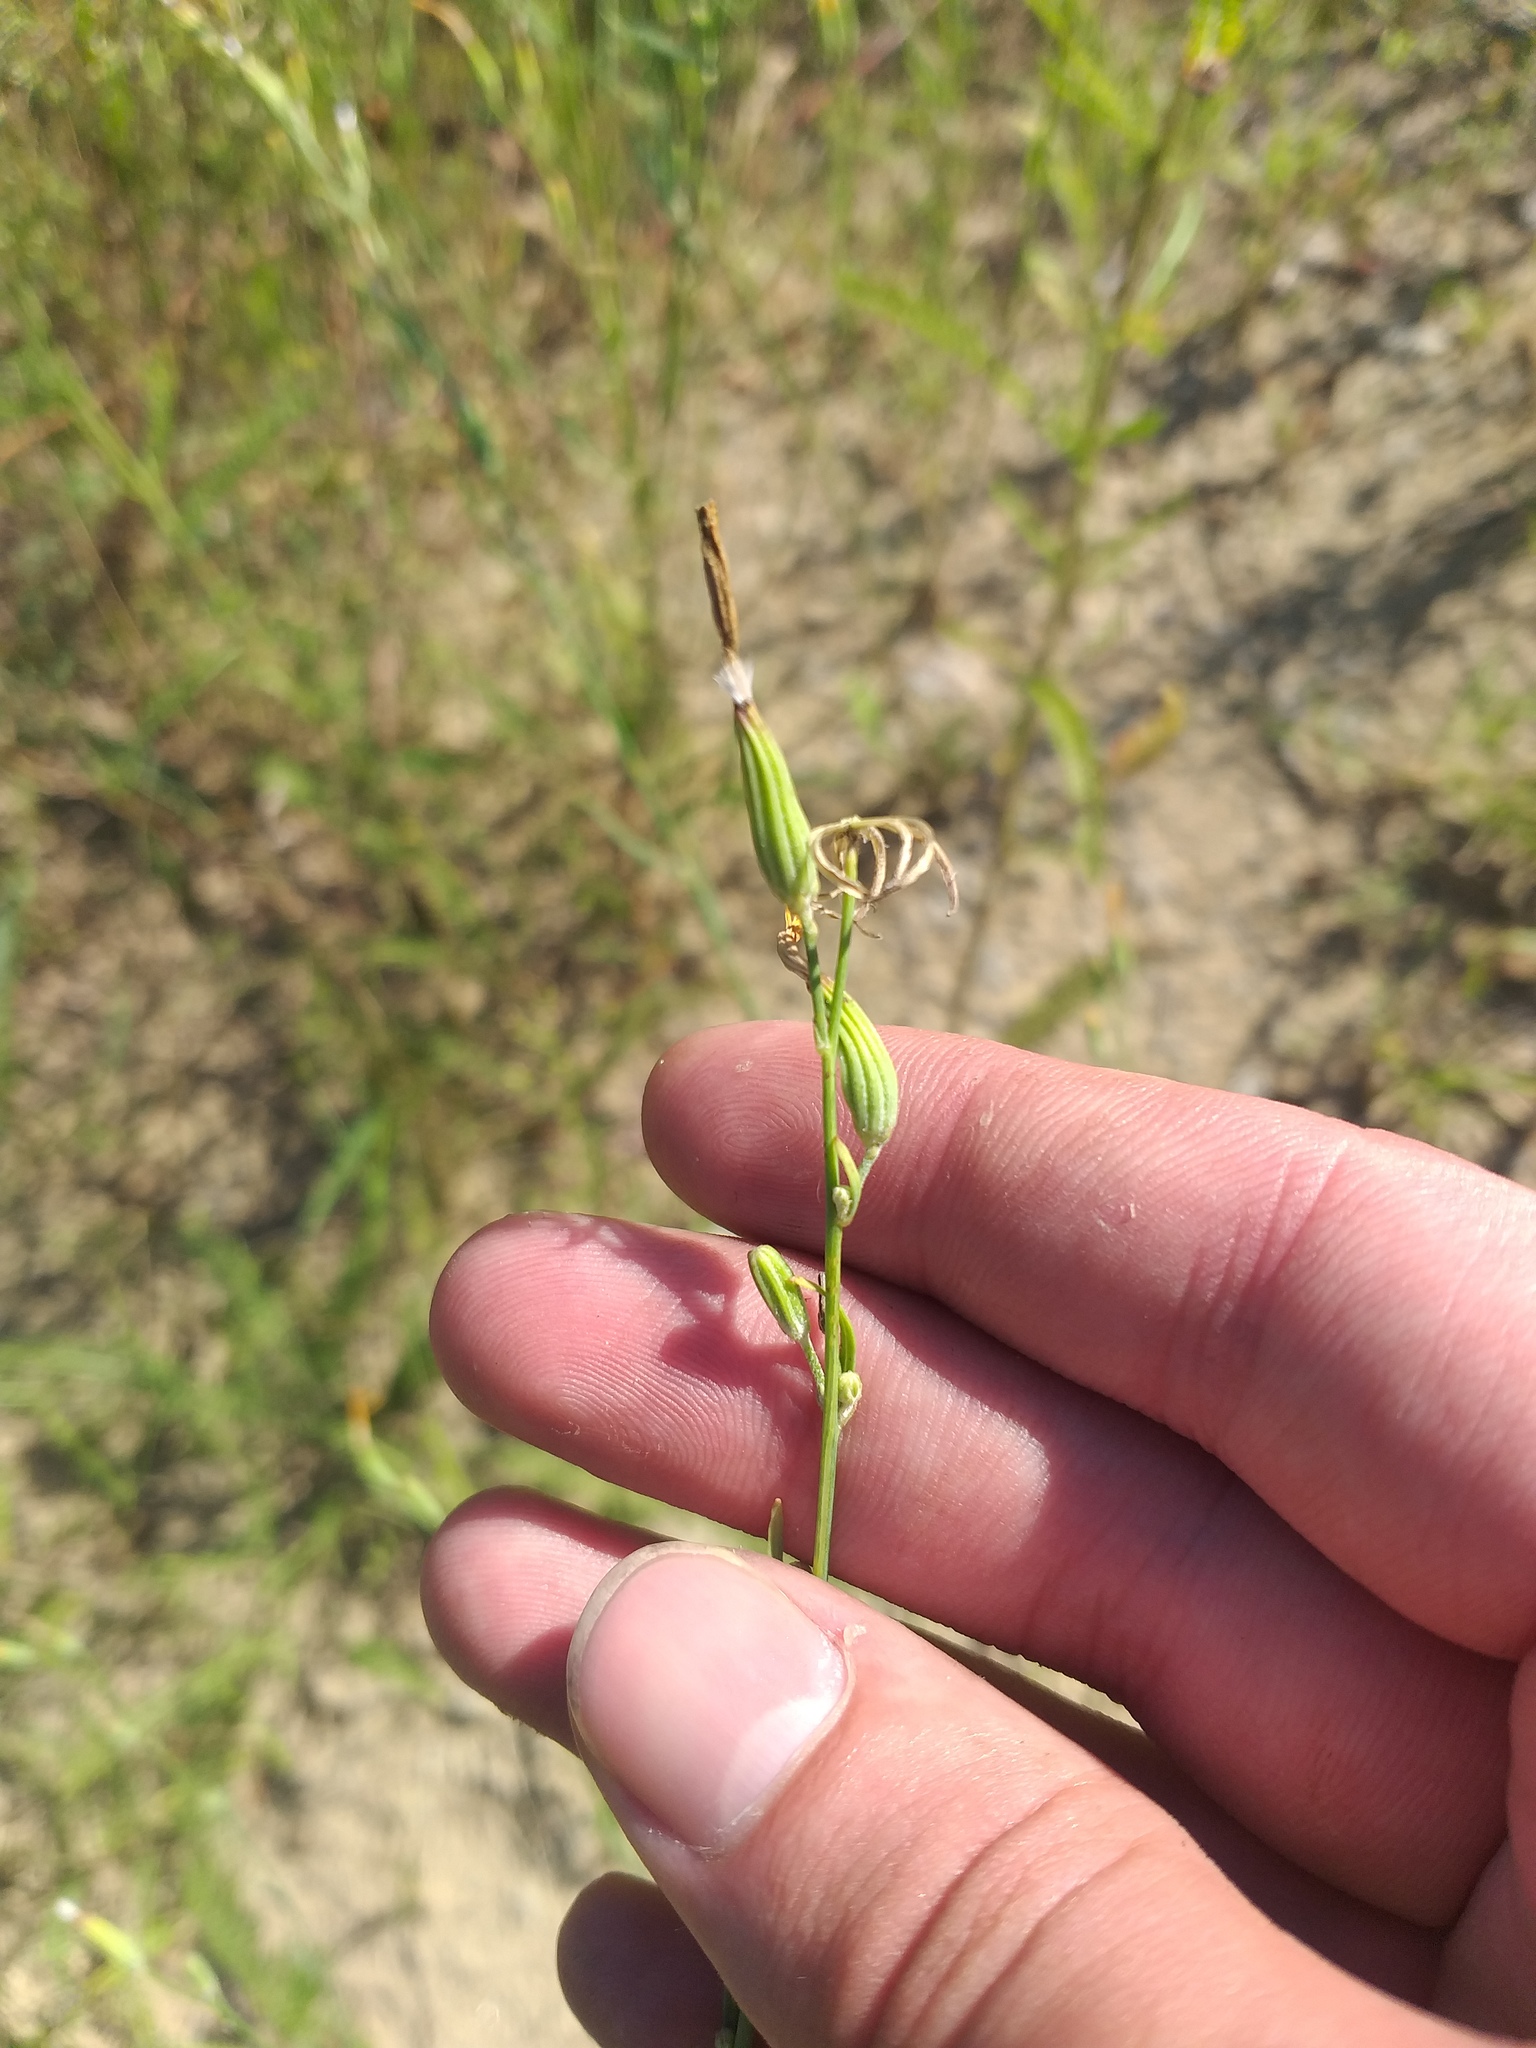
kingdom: Plantae
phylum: Tracheophyta
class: Magnoliopsida
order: Asterales
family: Asteraceae
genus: Chondrilla
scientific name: Chondrilla juncea
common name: Skeleton weed
